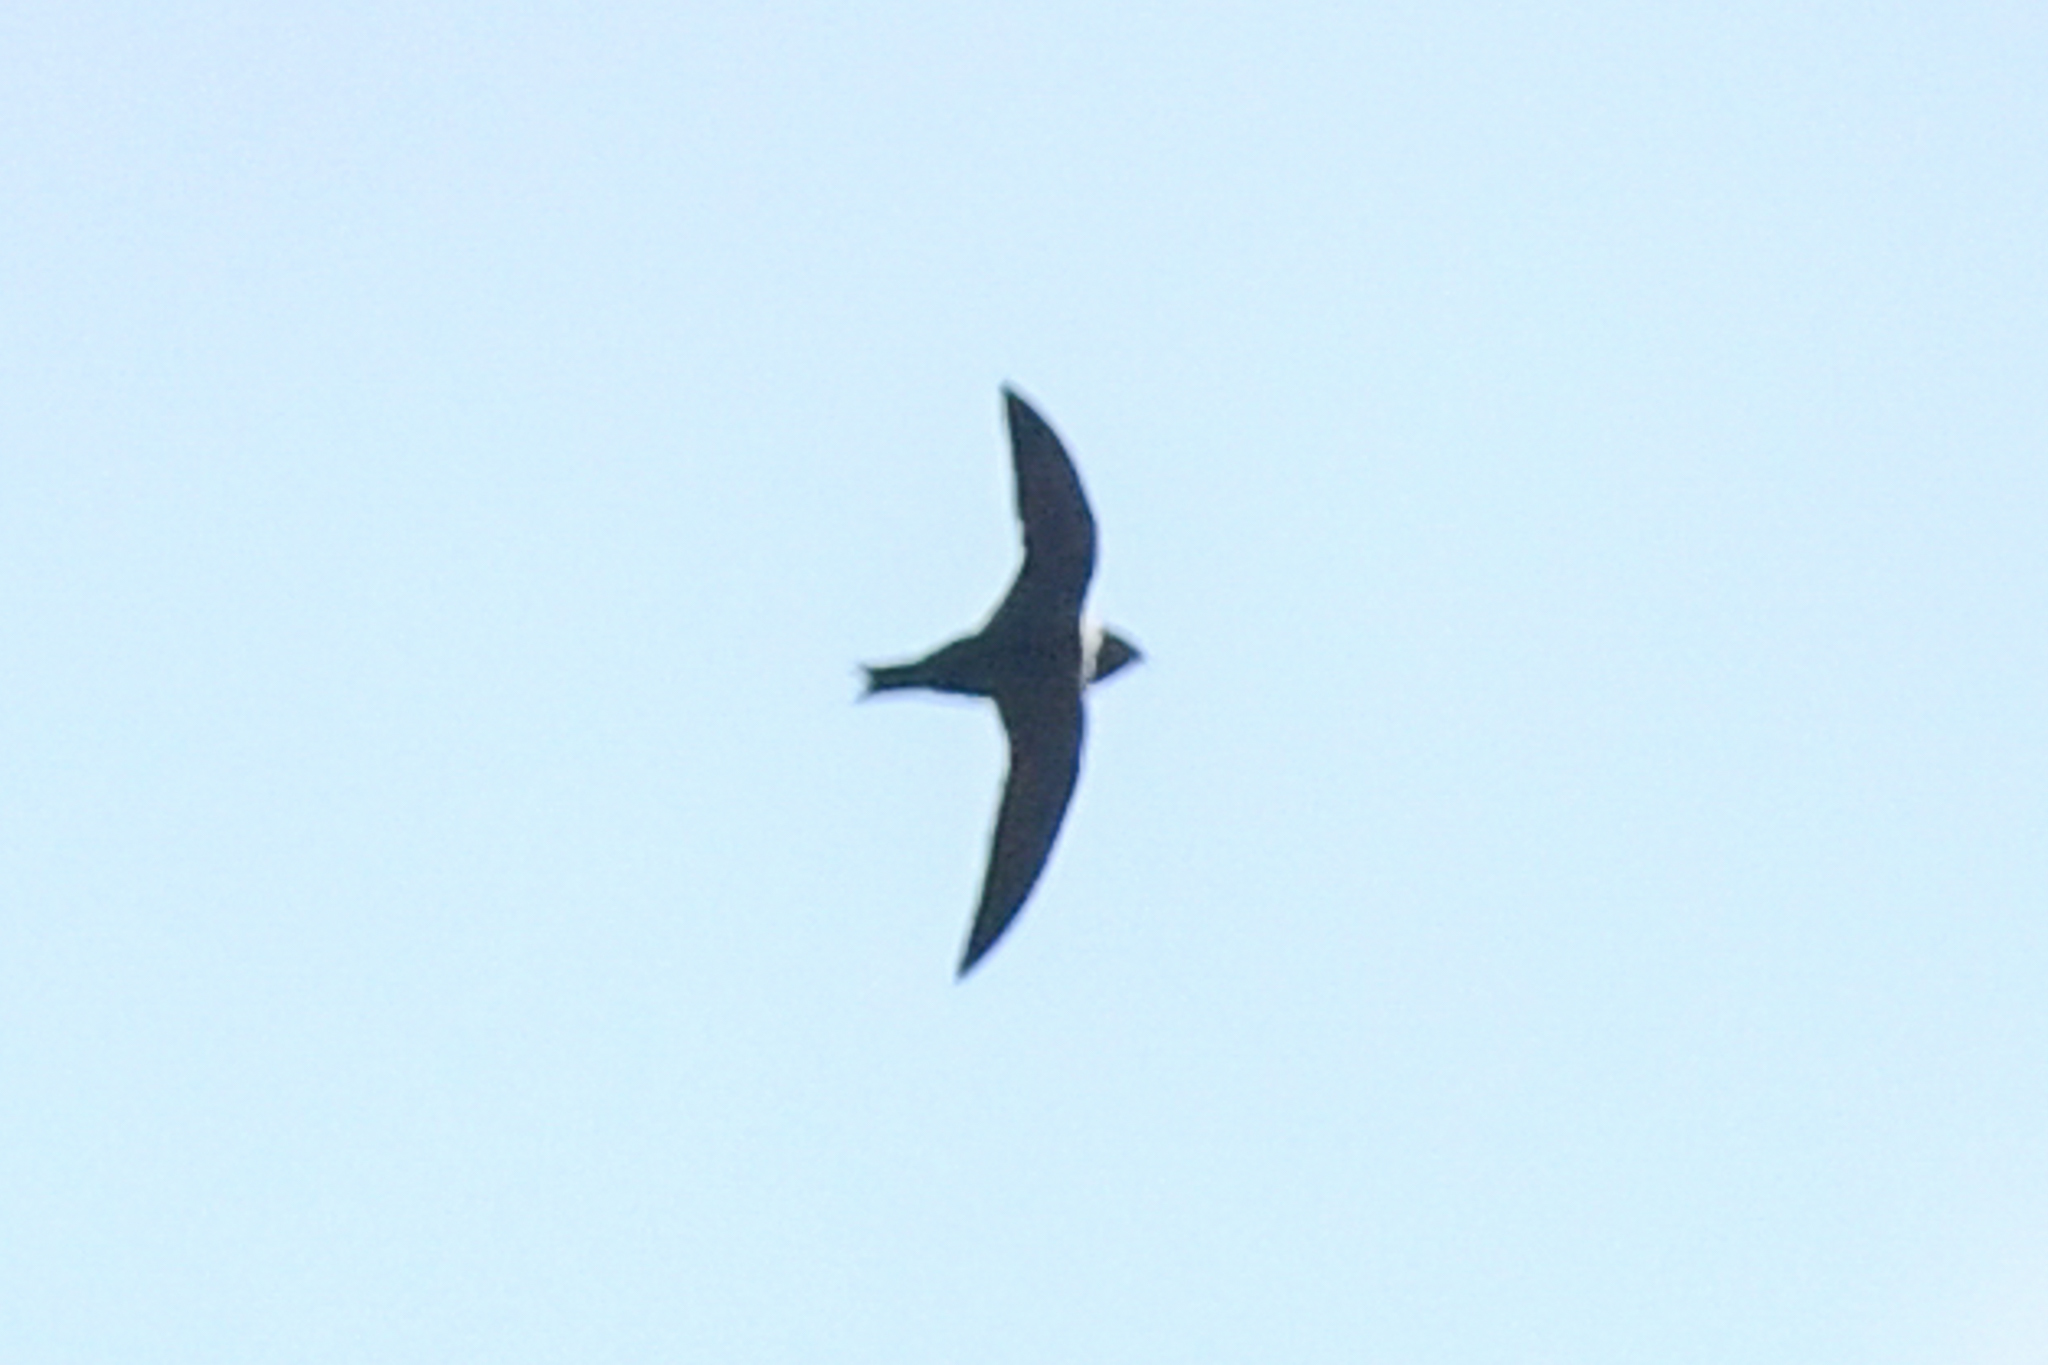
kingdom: Animalia
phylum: Chordata
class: Aves
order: Apodiformes
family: Apodidae
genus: Streptoprocne
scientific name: Streptoprocne zonaris
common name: White-collared swift
